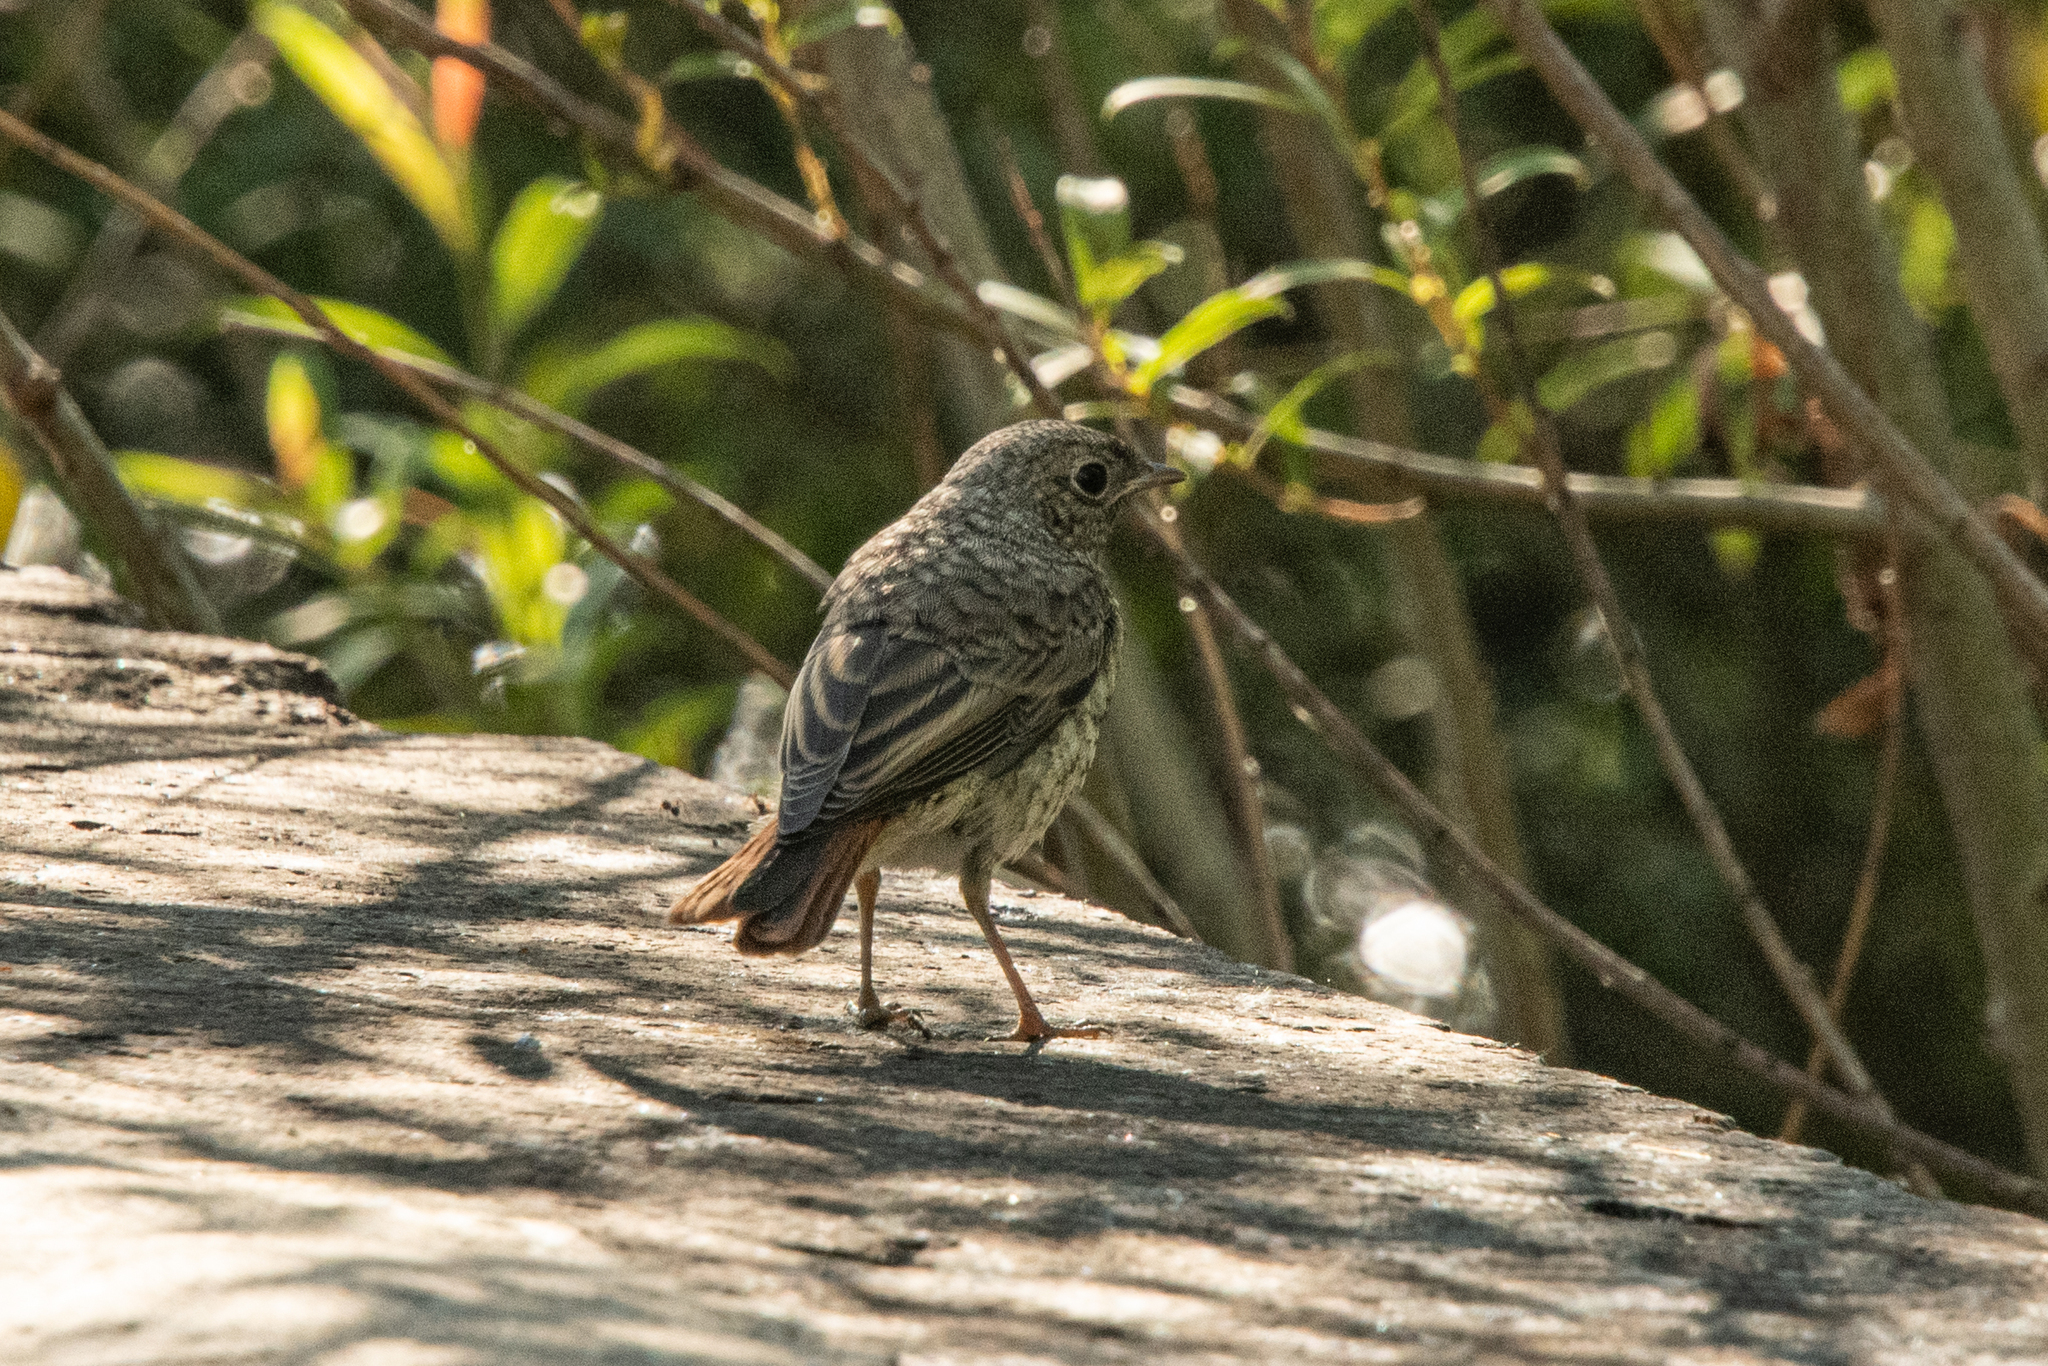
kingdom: Animalia
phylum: Chordata
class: Aves
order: Passeriformes
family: Muscicapidae
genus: Phoenicurus
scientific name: Phoenicurus phoenicurus
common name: Common redstart
